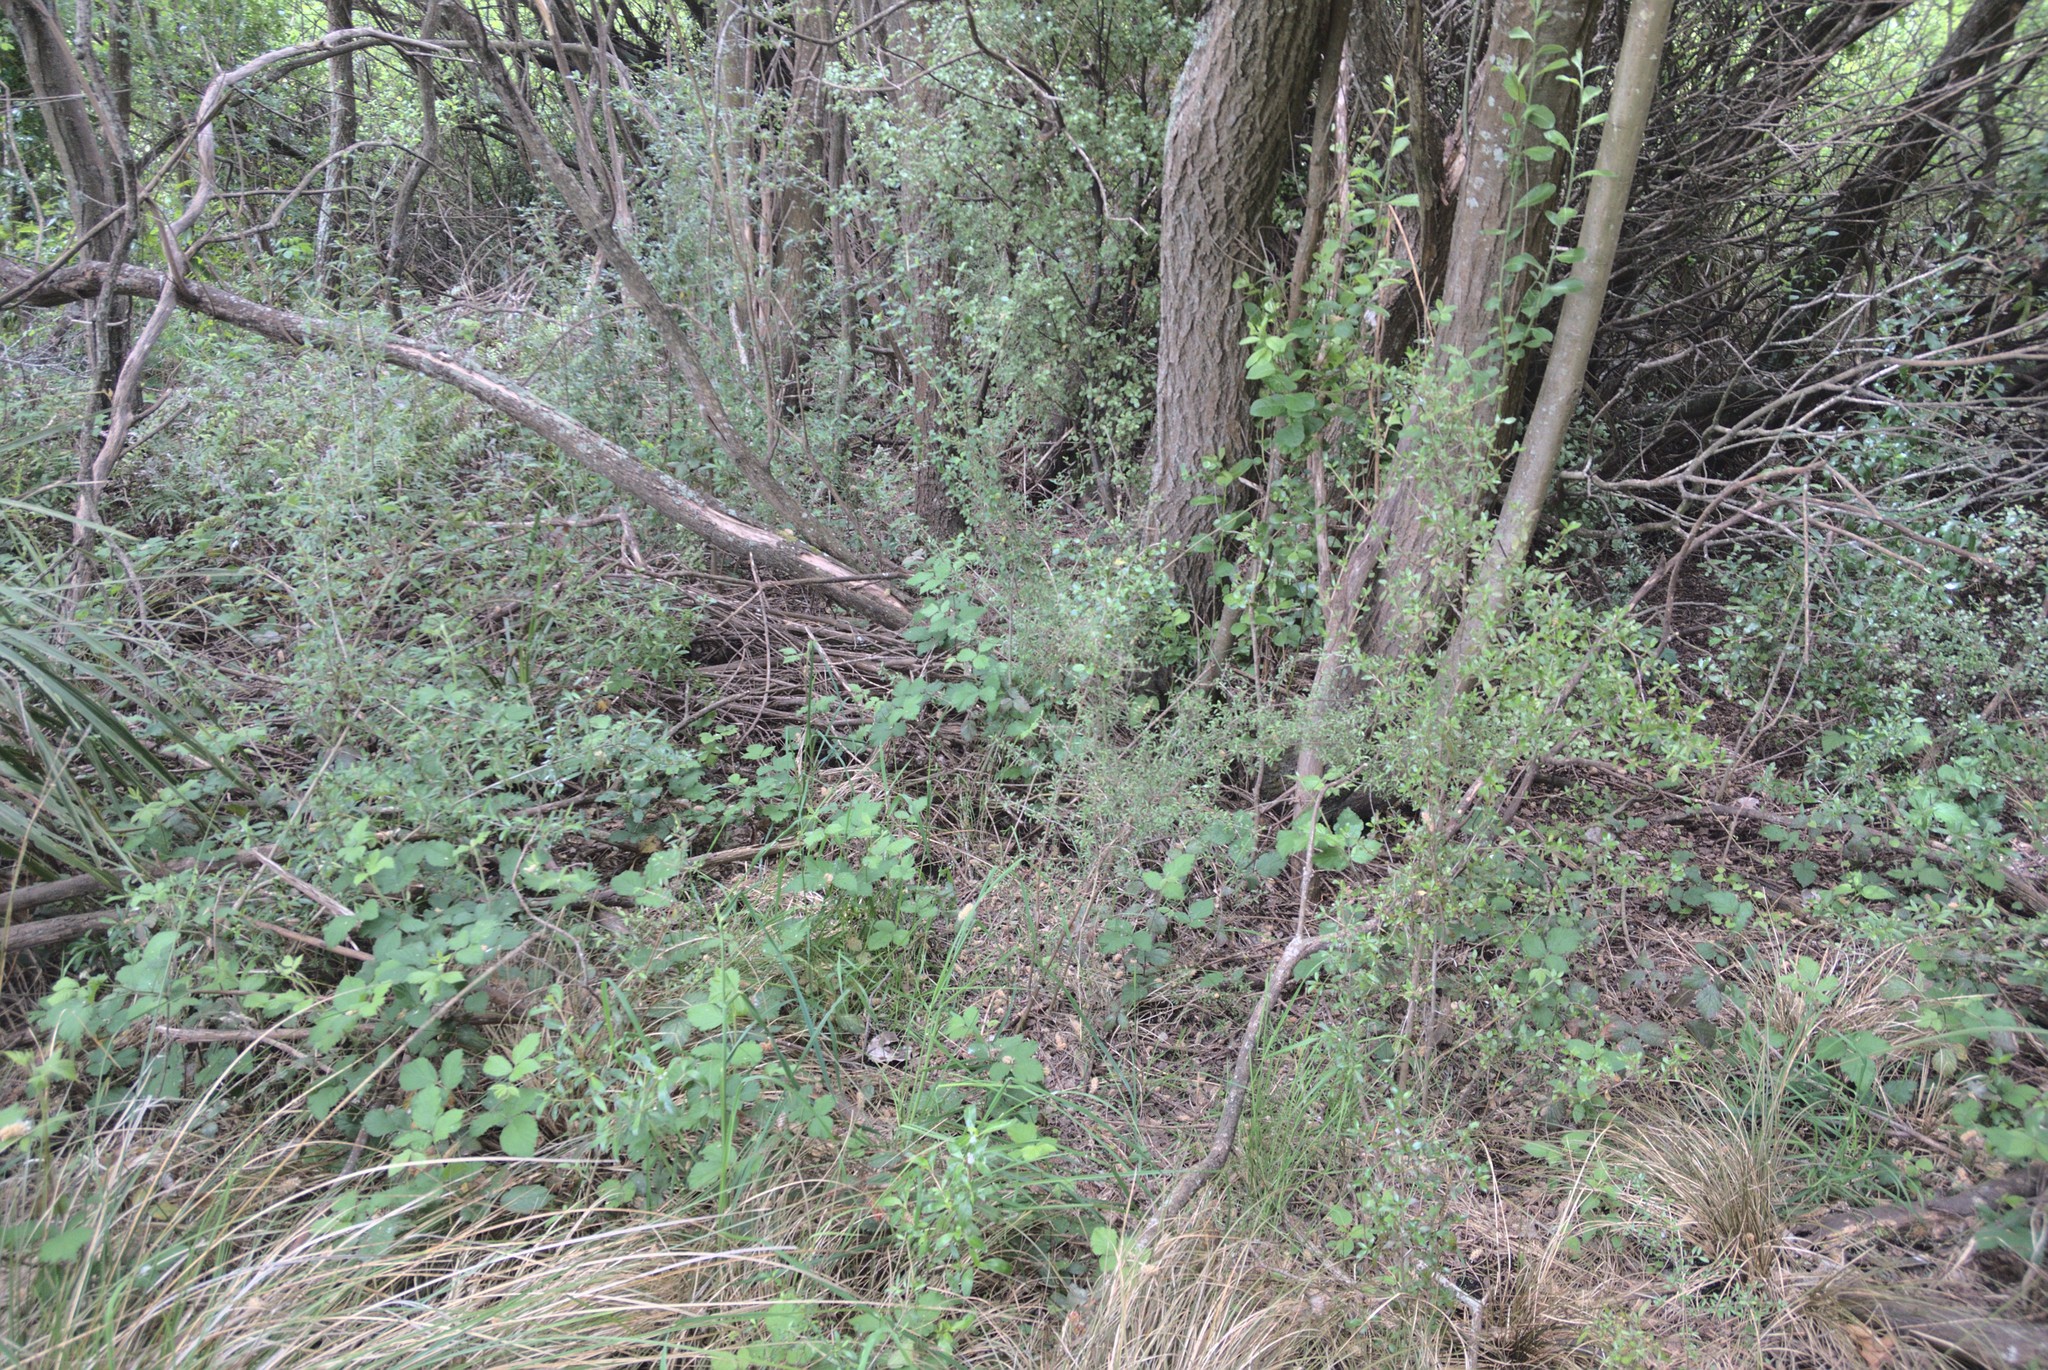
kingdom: Plantae
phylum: Tracheophyta
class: Magnoliopsida
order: Gentianales
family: Rubiaceae
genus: Coprosma
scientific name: Coprosma cunninghamii
